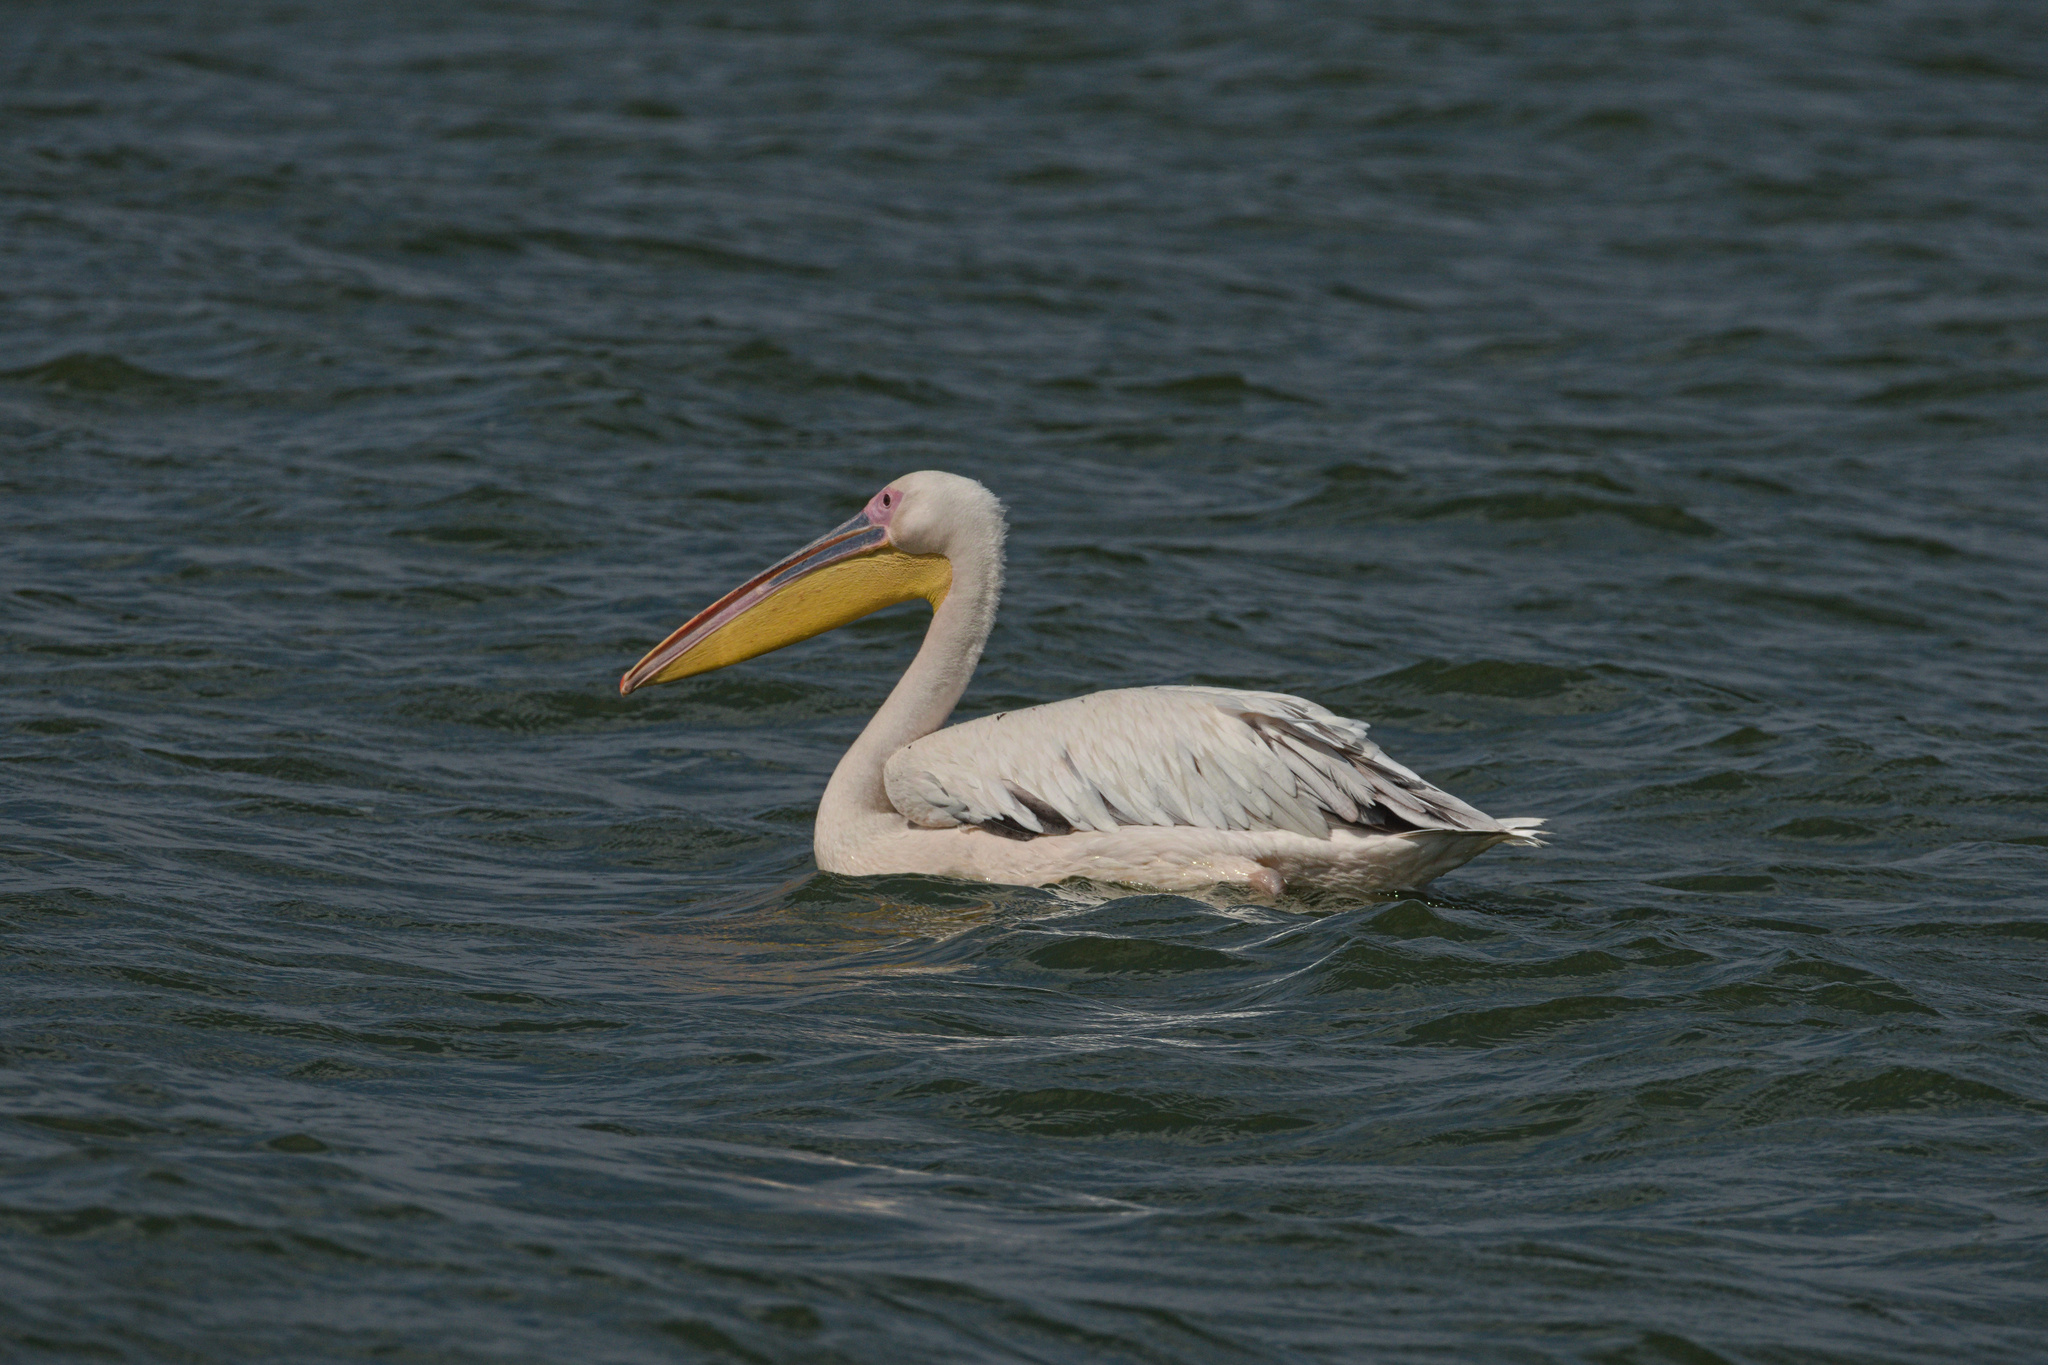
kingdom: Animalia
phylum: Chordata
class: Aves
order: Pelecaniformes
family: Pelecanidae
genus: Pelecanus
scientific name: Pelecanus onocrotalus
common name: Great white pelican
